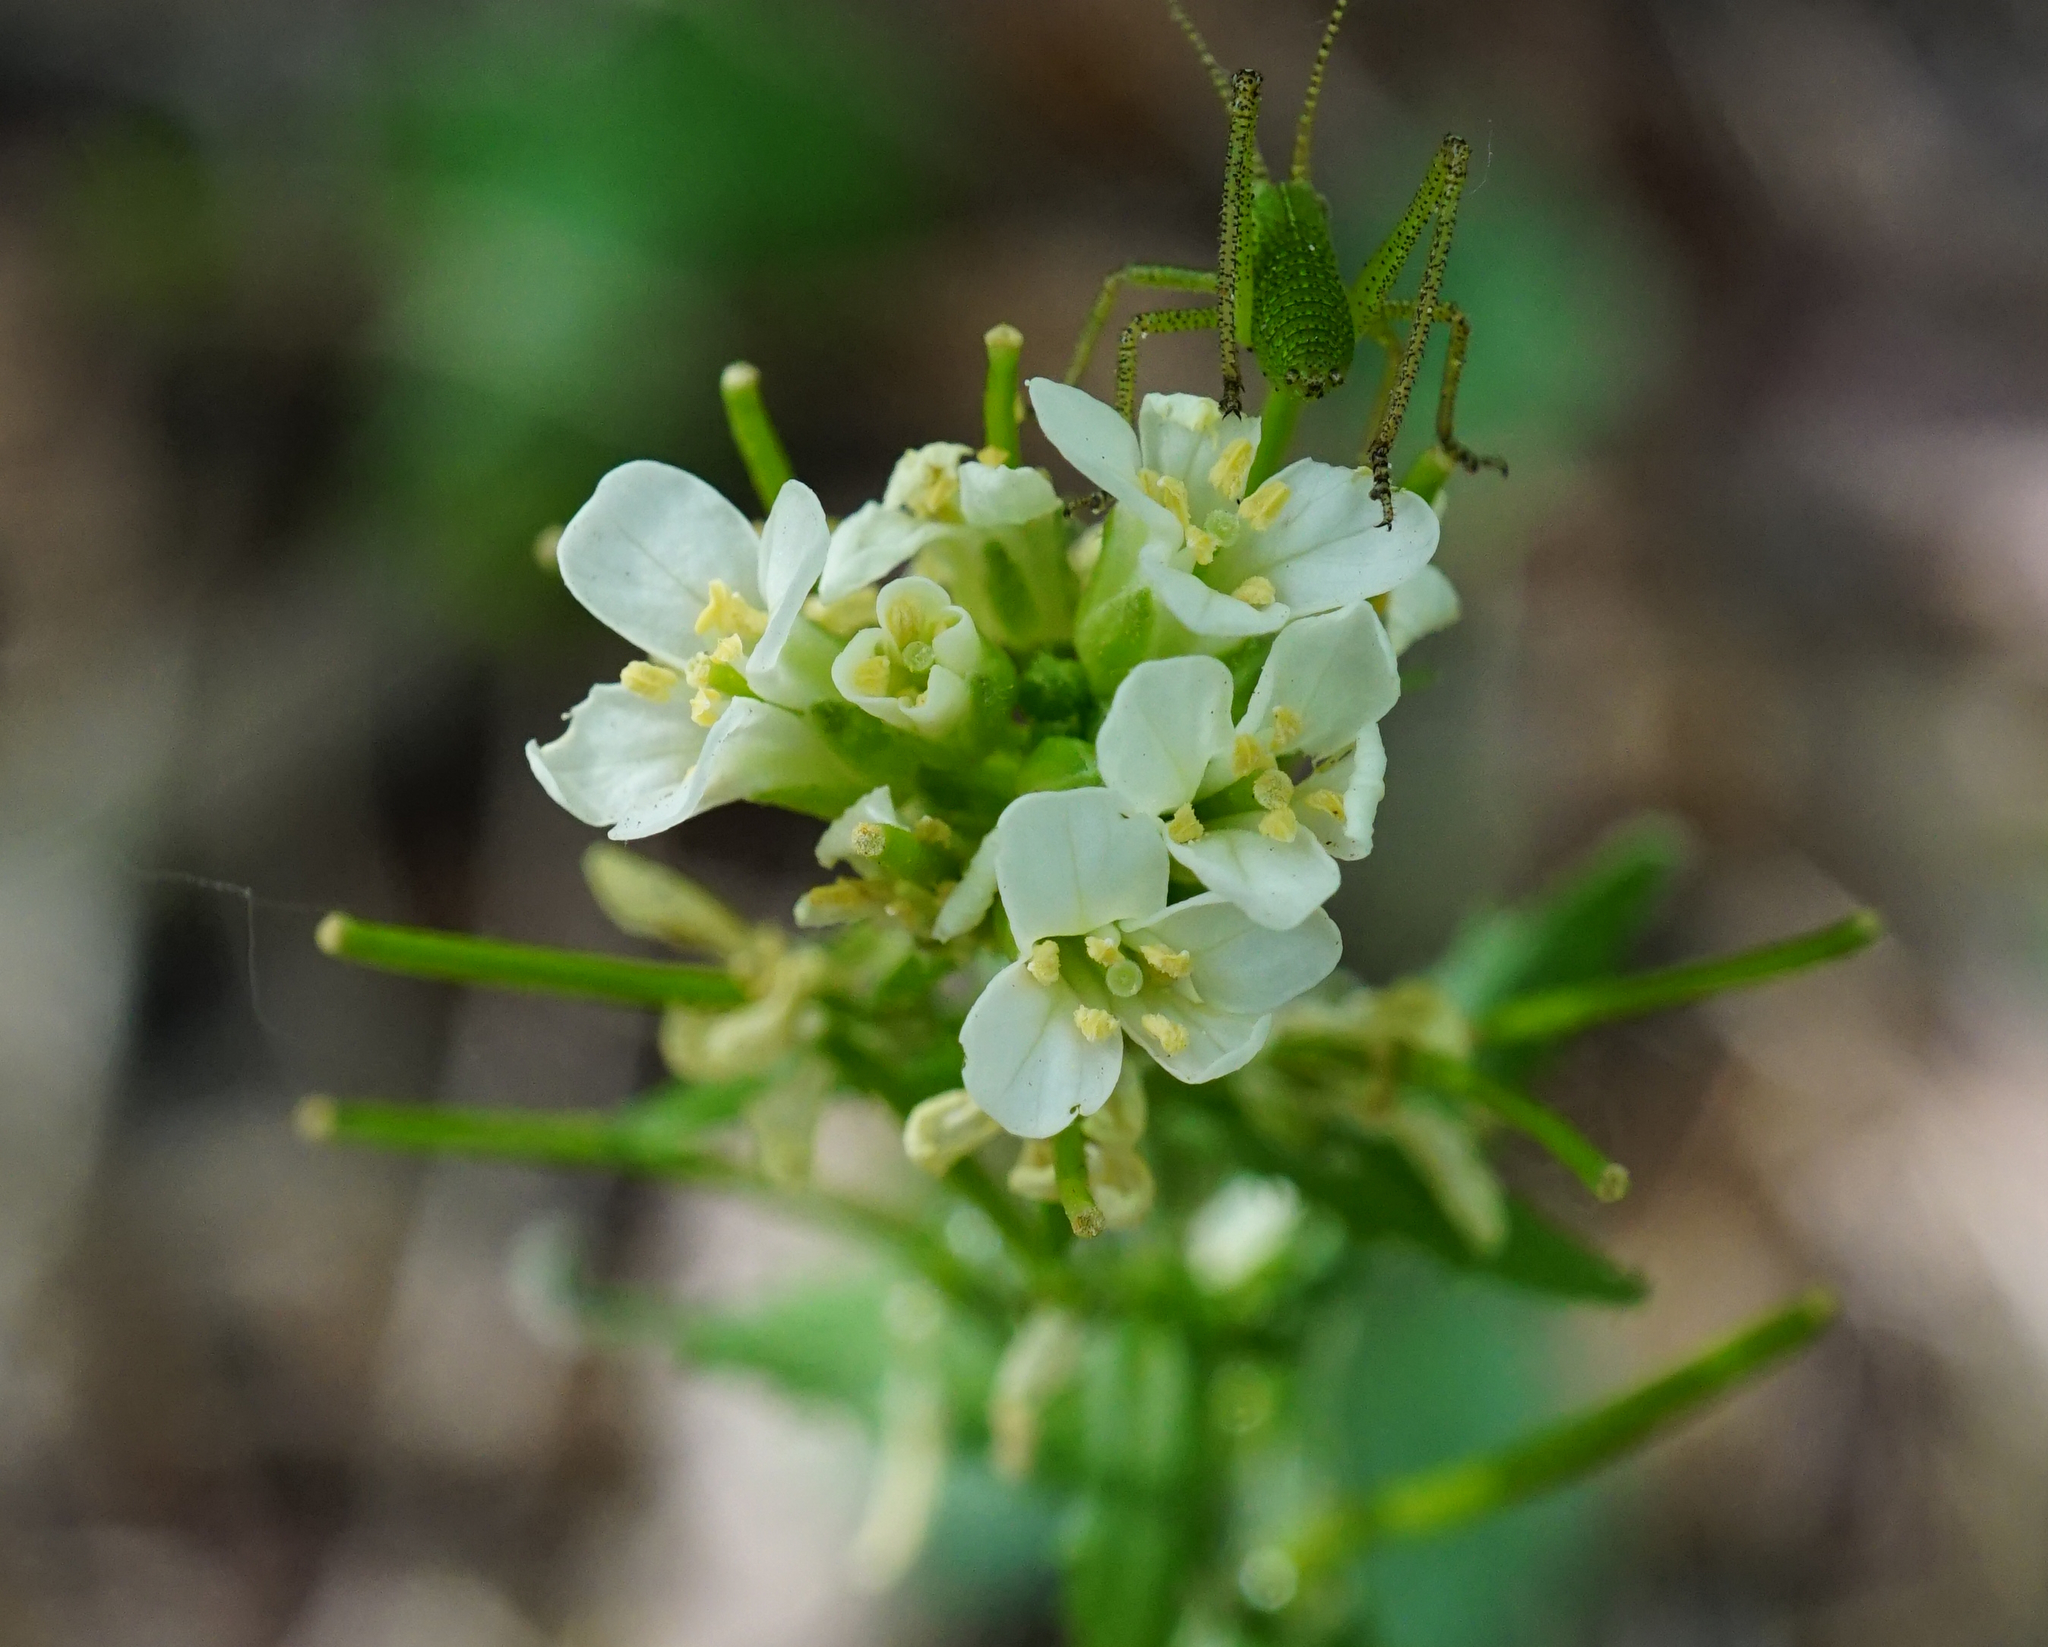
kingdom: Plantae
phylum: Tracheophyta
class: Magnoliopsida
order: Brassicales
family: Brassicaceae
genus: Pseudoturritis
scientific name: Pseudoturritis turrita
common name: Tower cress
